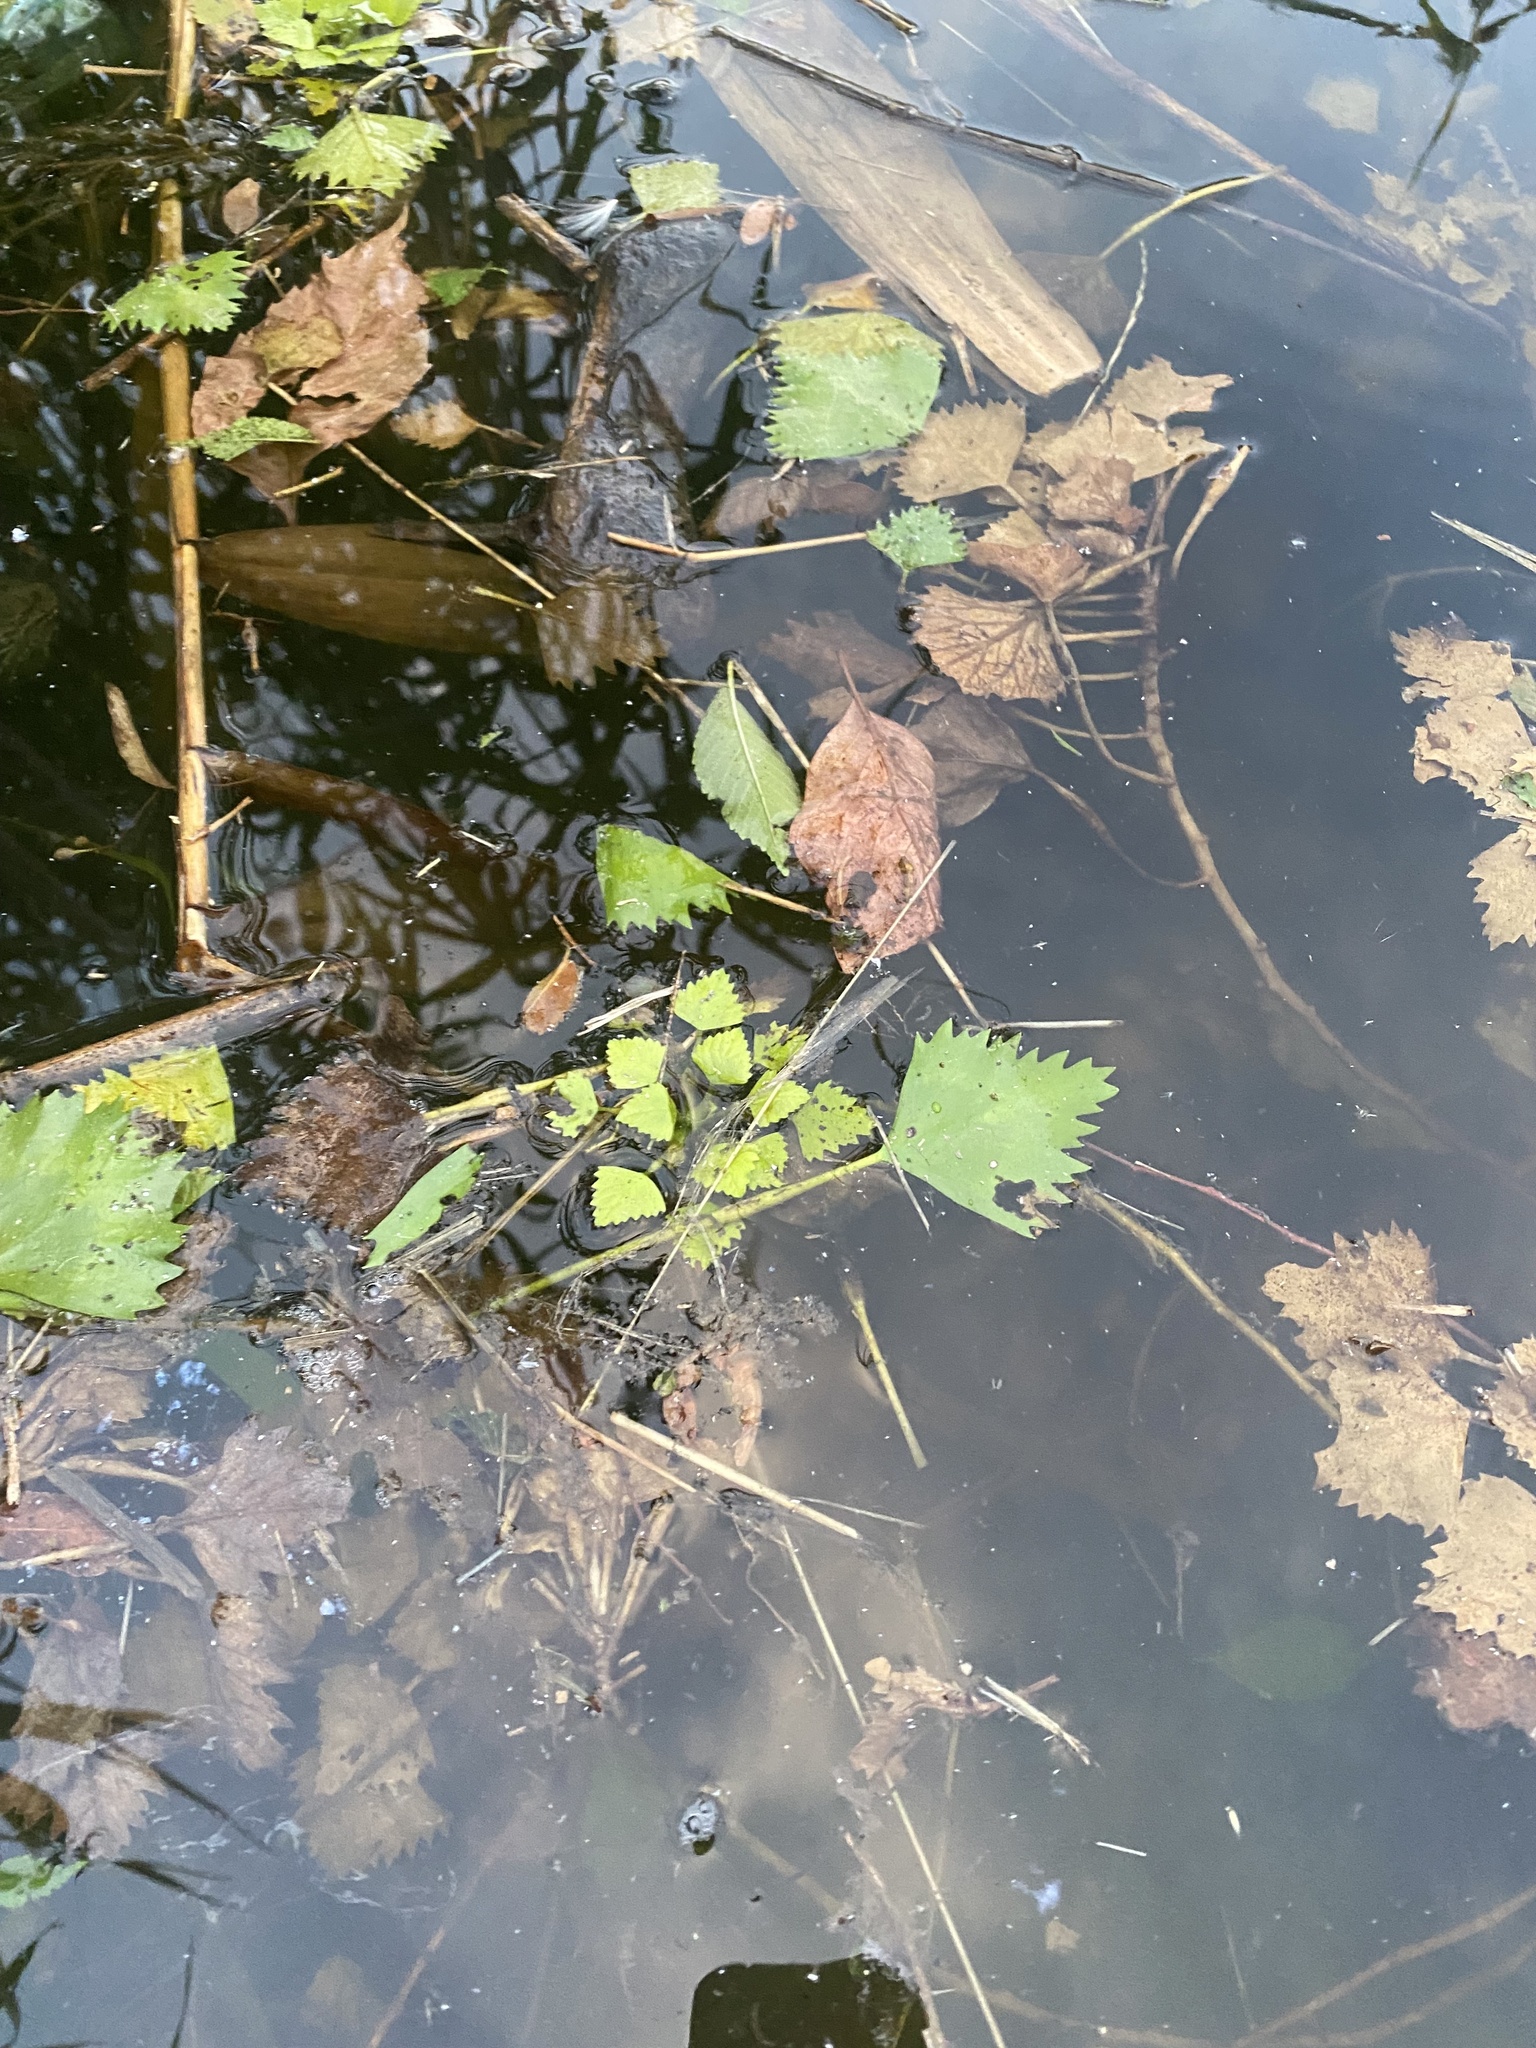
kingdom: Plantae
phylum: Tracheophyta
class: Magnoliopsida
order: Myrtales
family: Lythraceae
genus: Trapa
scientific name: Trapa natans
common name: Water chestnut
